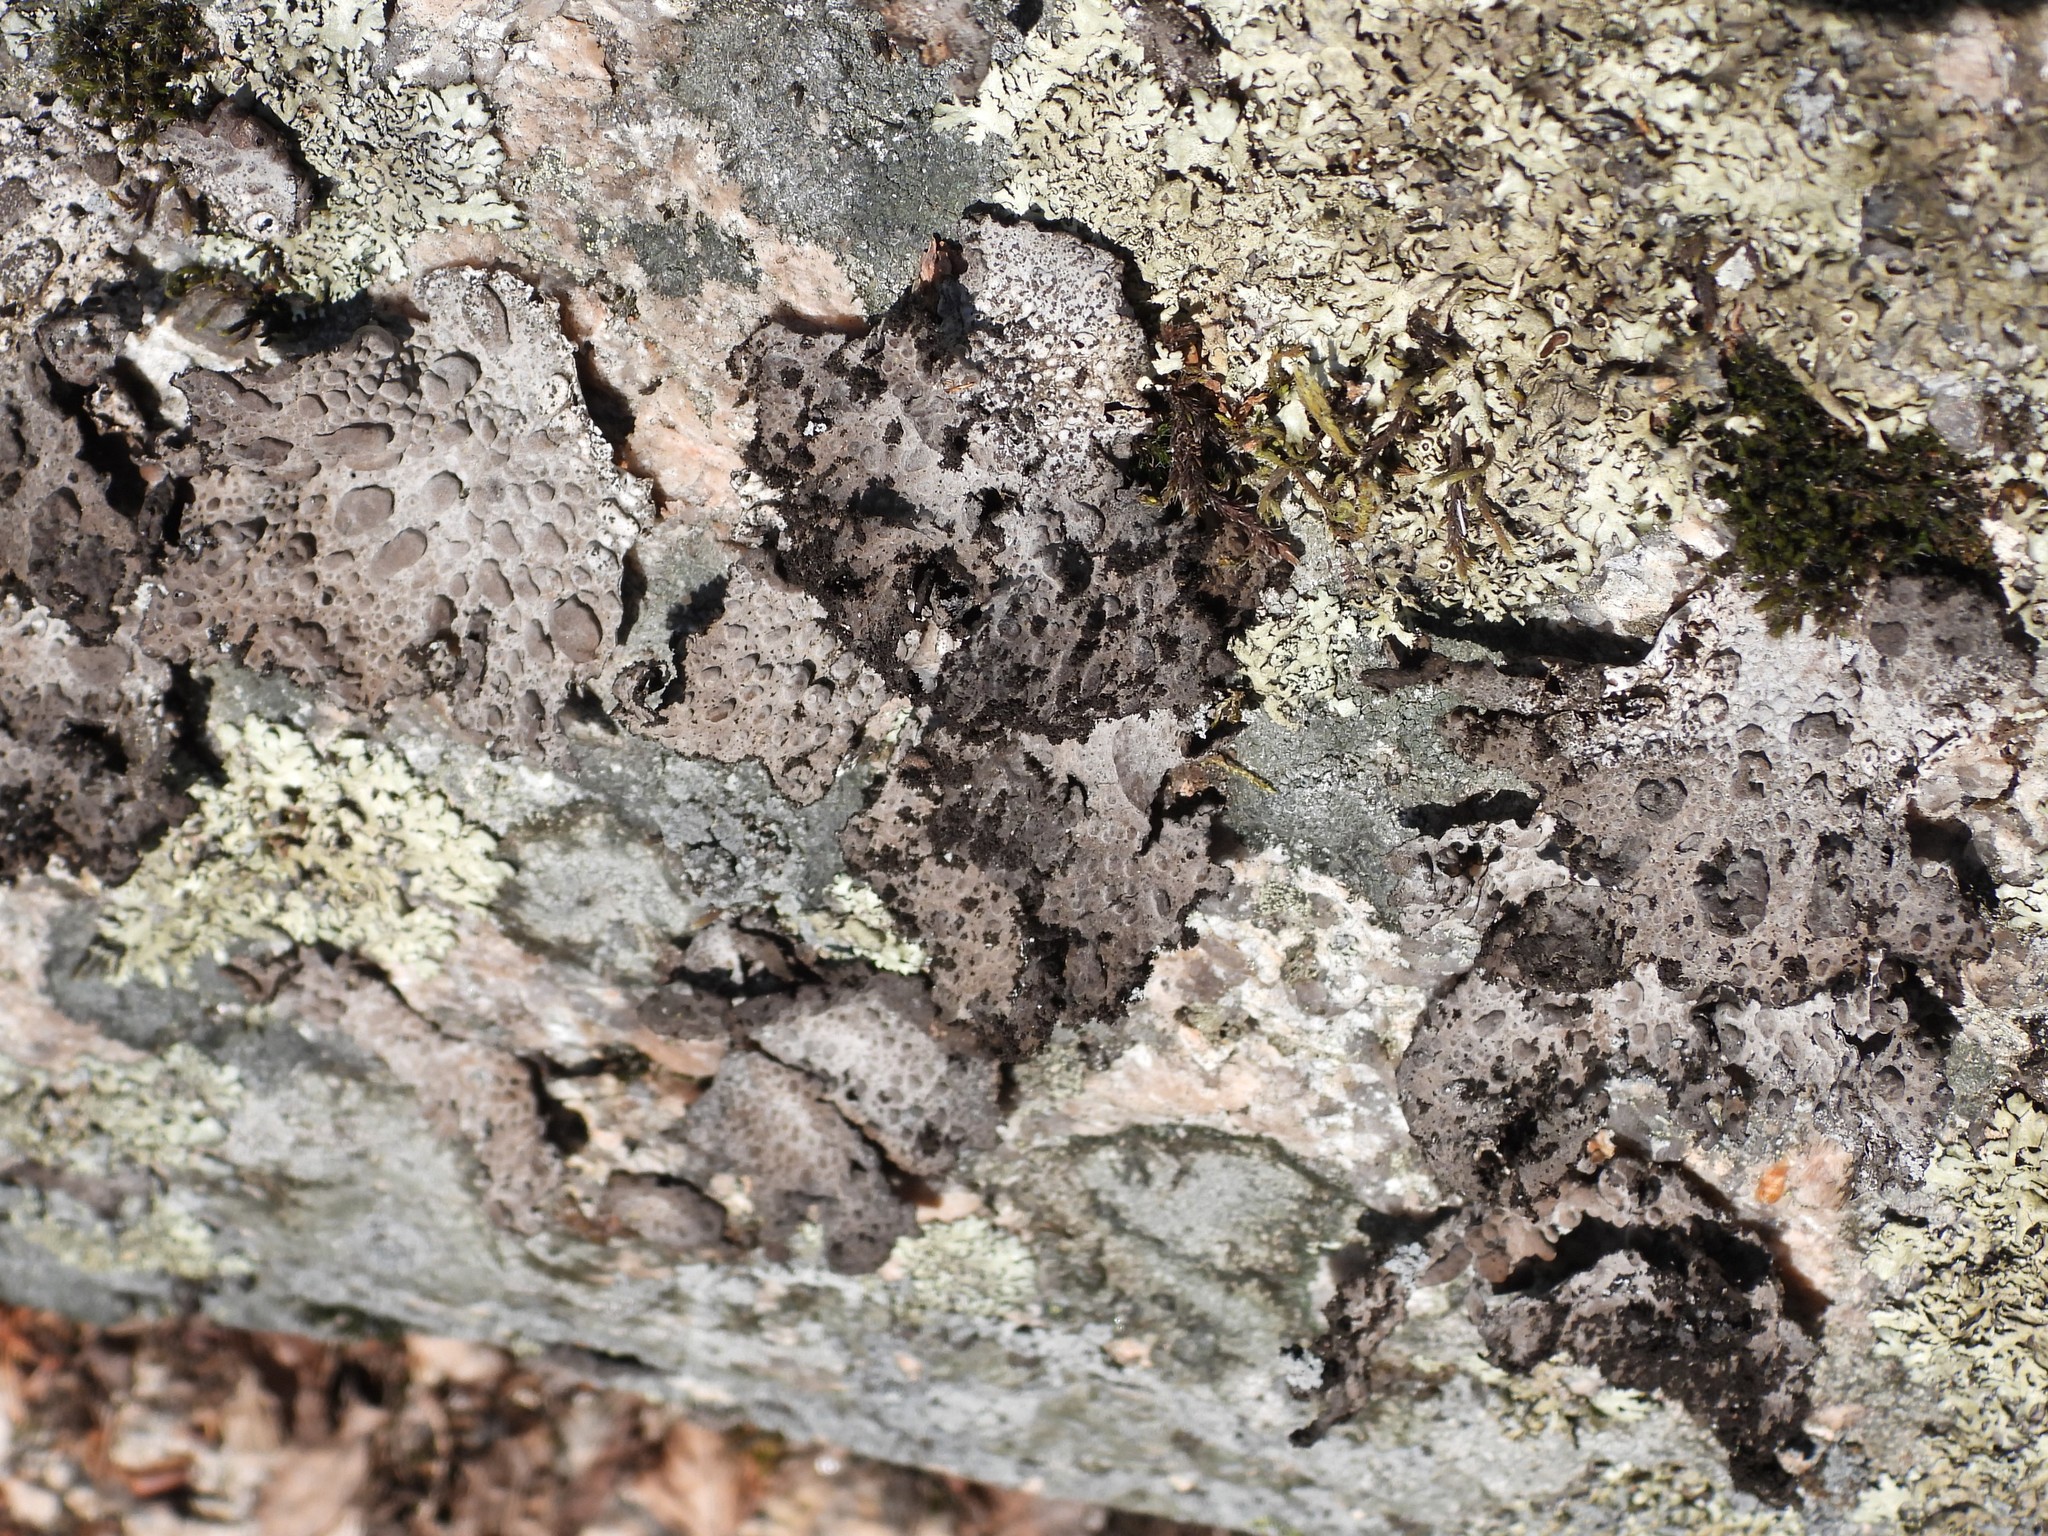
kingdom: Fungi
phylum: Ascomycota
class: Lecanoromycetes
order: Umbilicariales
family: Umbilicariaceae
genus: Lasallia
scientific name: Lasallia pustulata
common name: Blistered toadskin lichen
